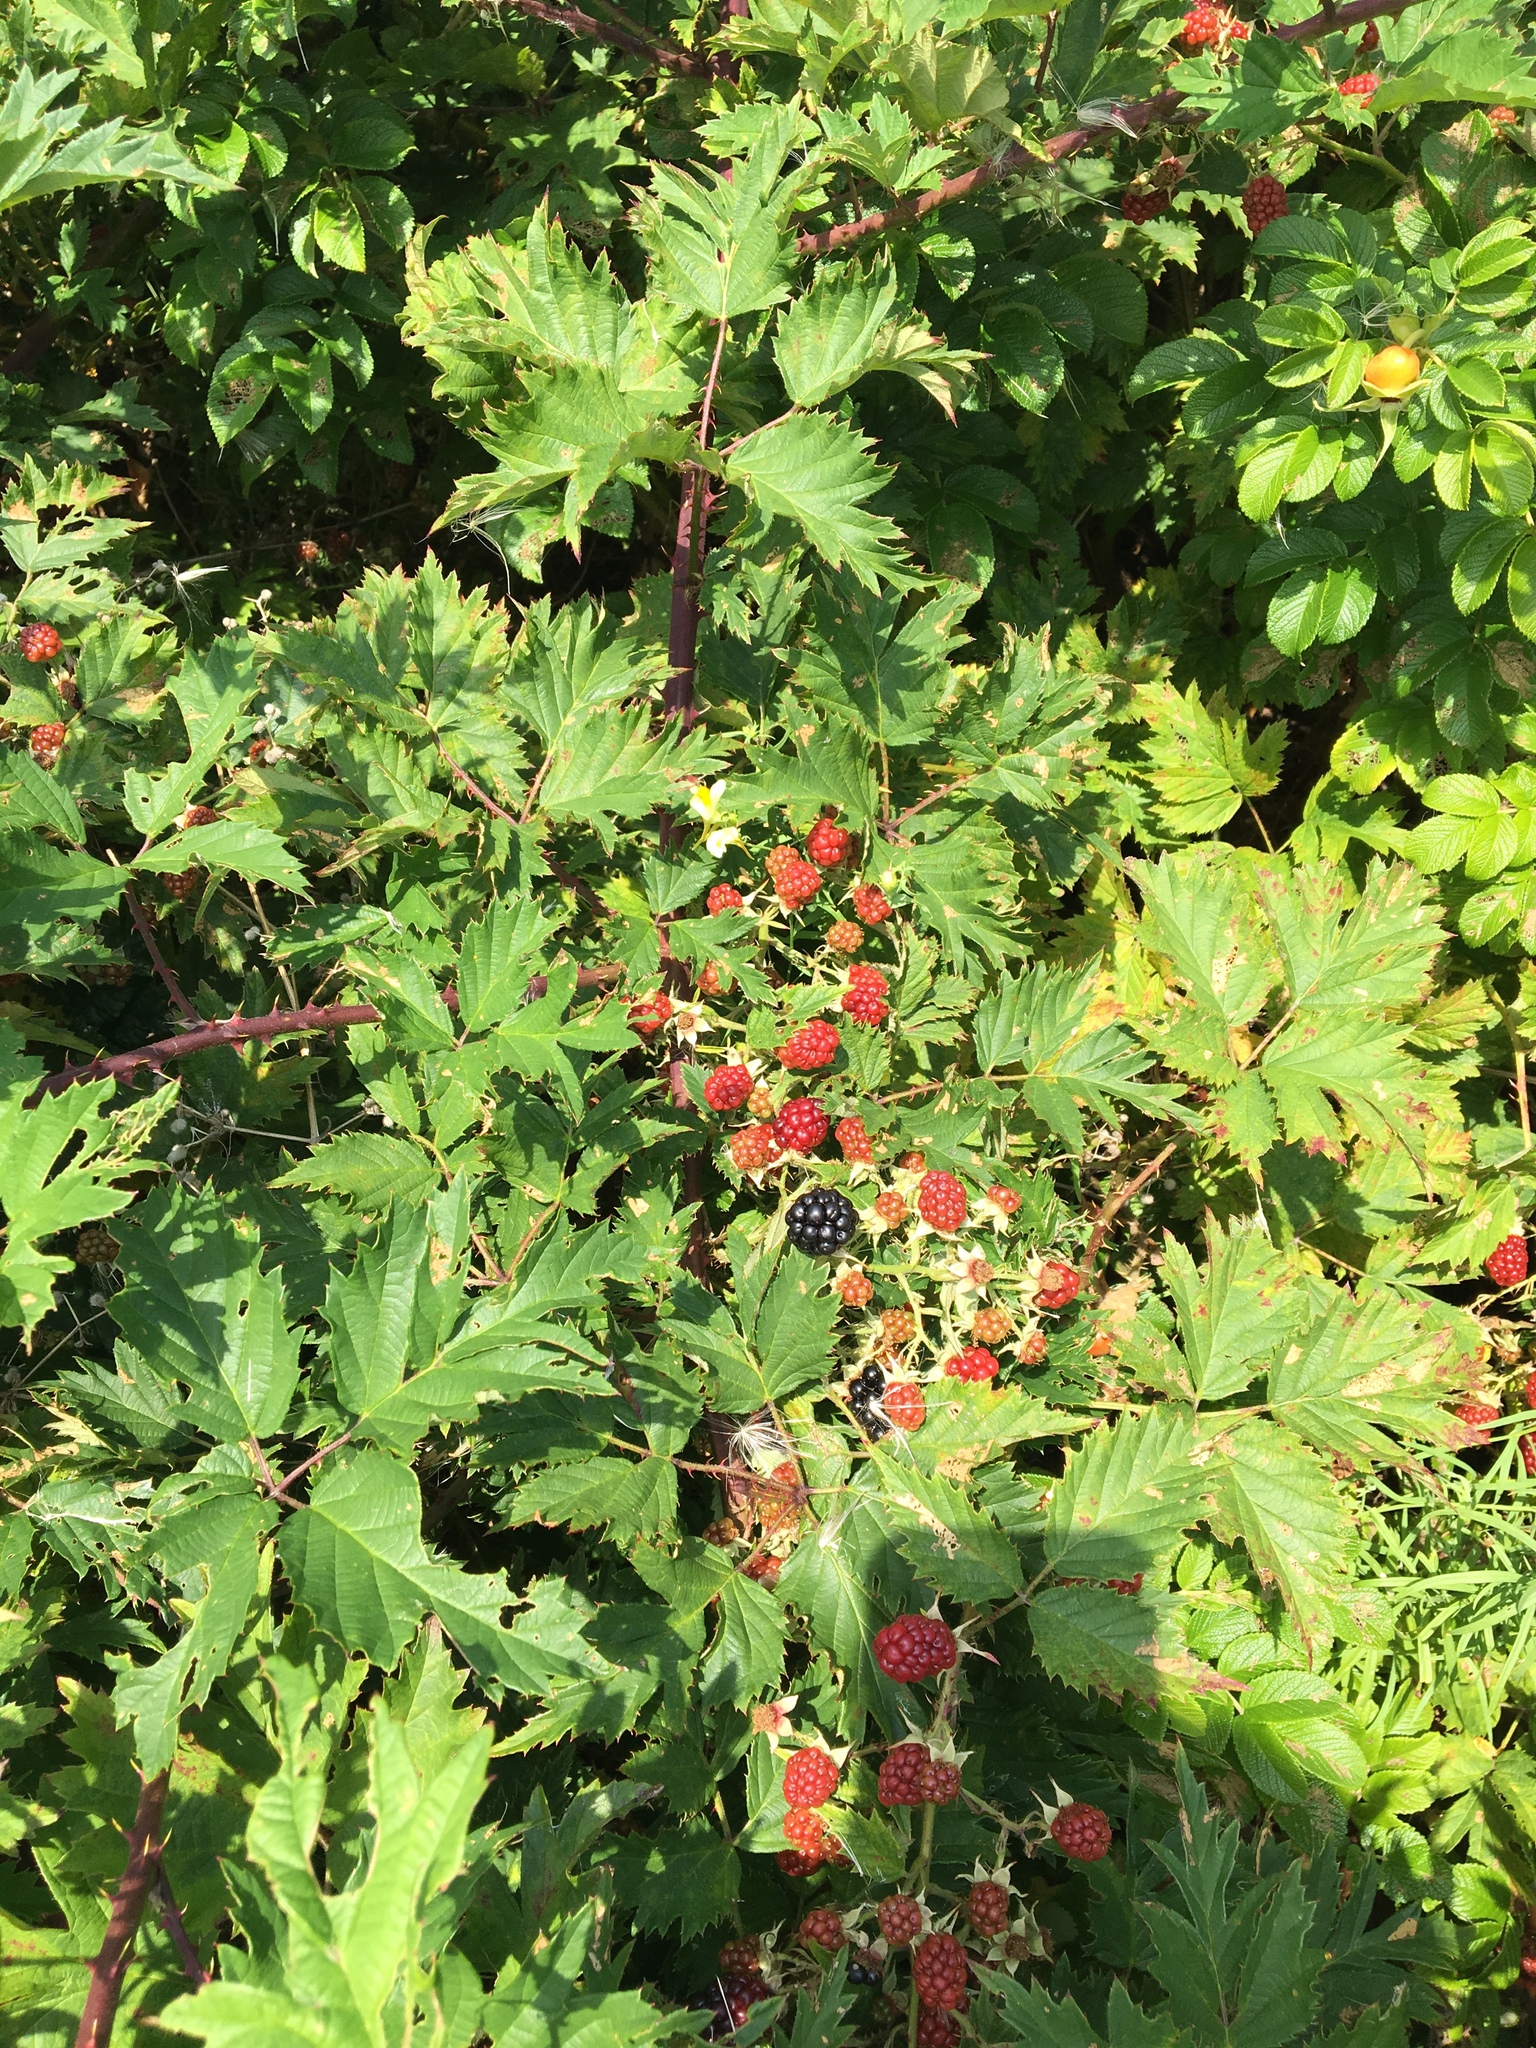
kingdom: Plantae
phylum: Tracheophyta
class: Magnoliopsida
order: Rosales
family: Rosaceae
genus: Rubus
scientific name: Rubus laciniatus
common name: Evergreen blackberry
